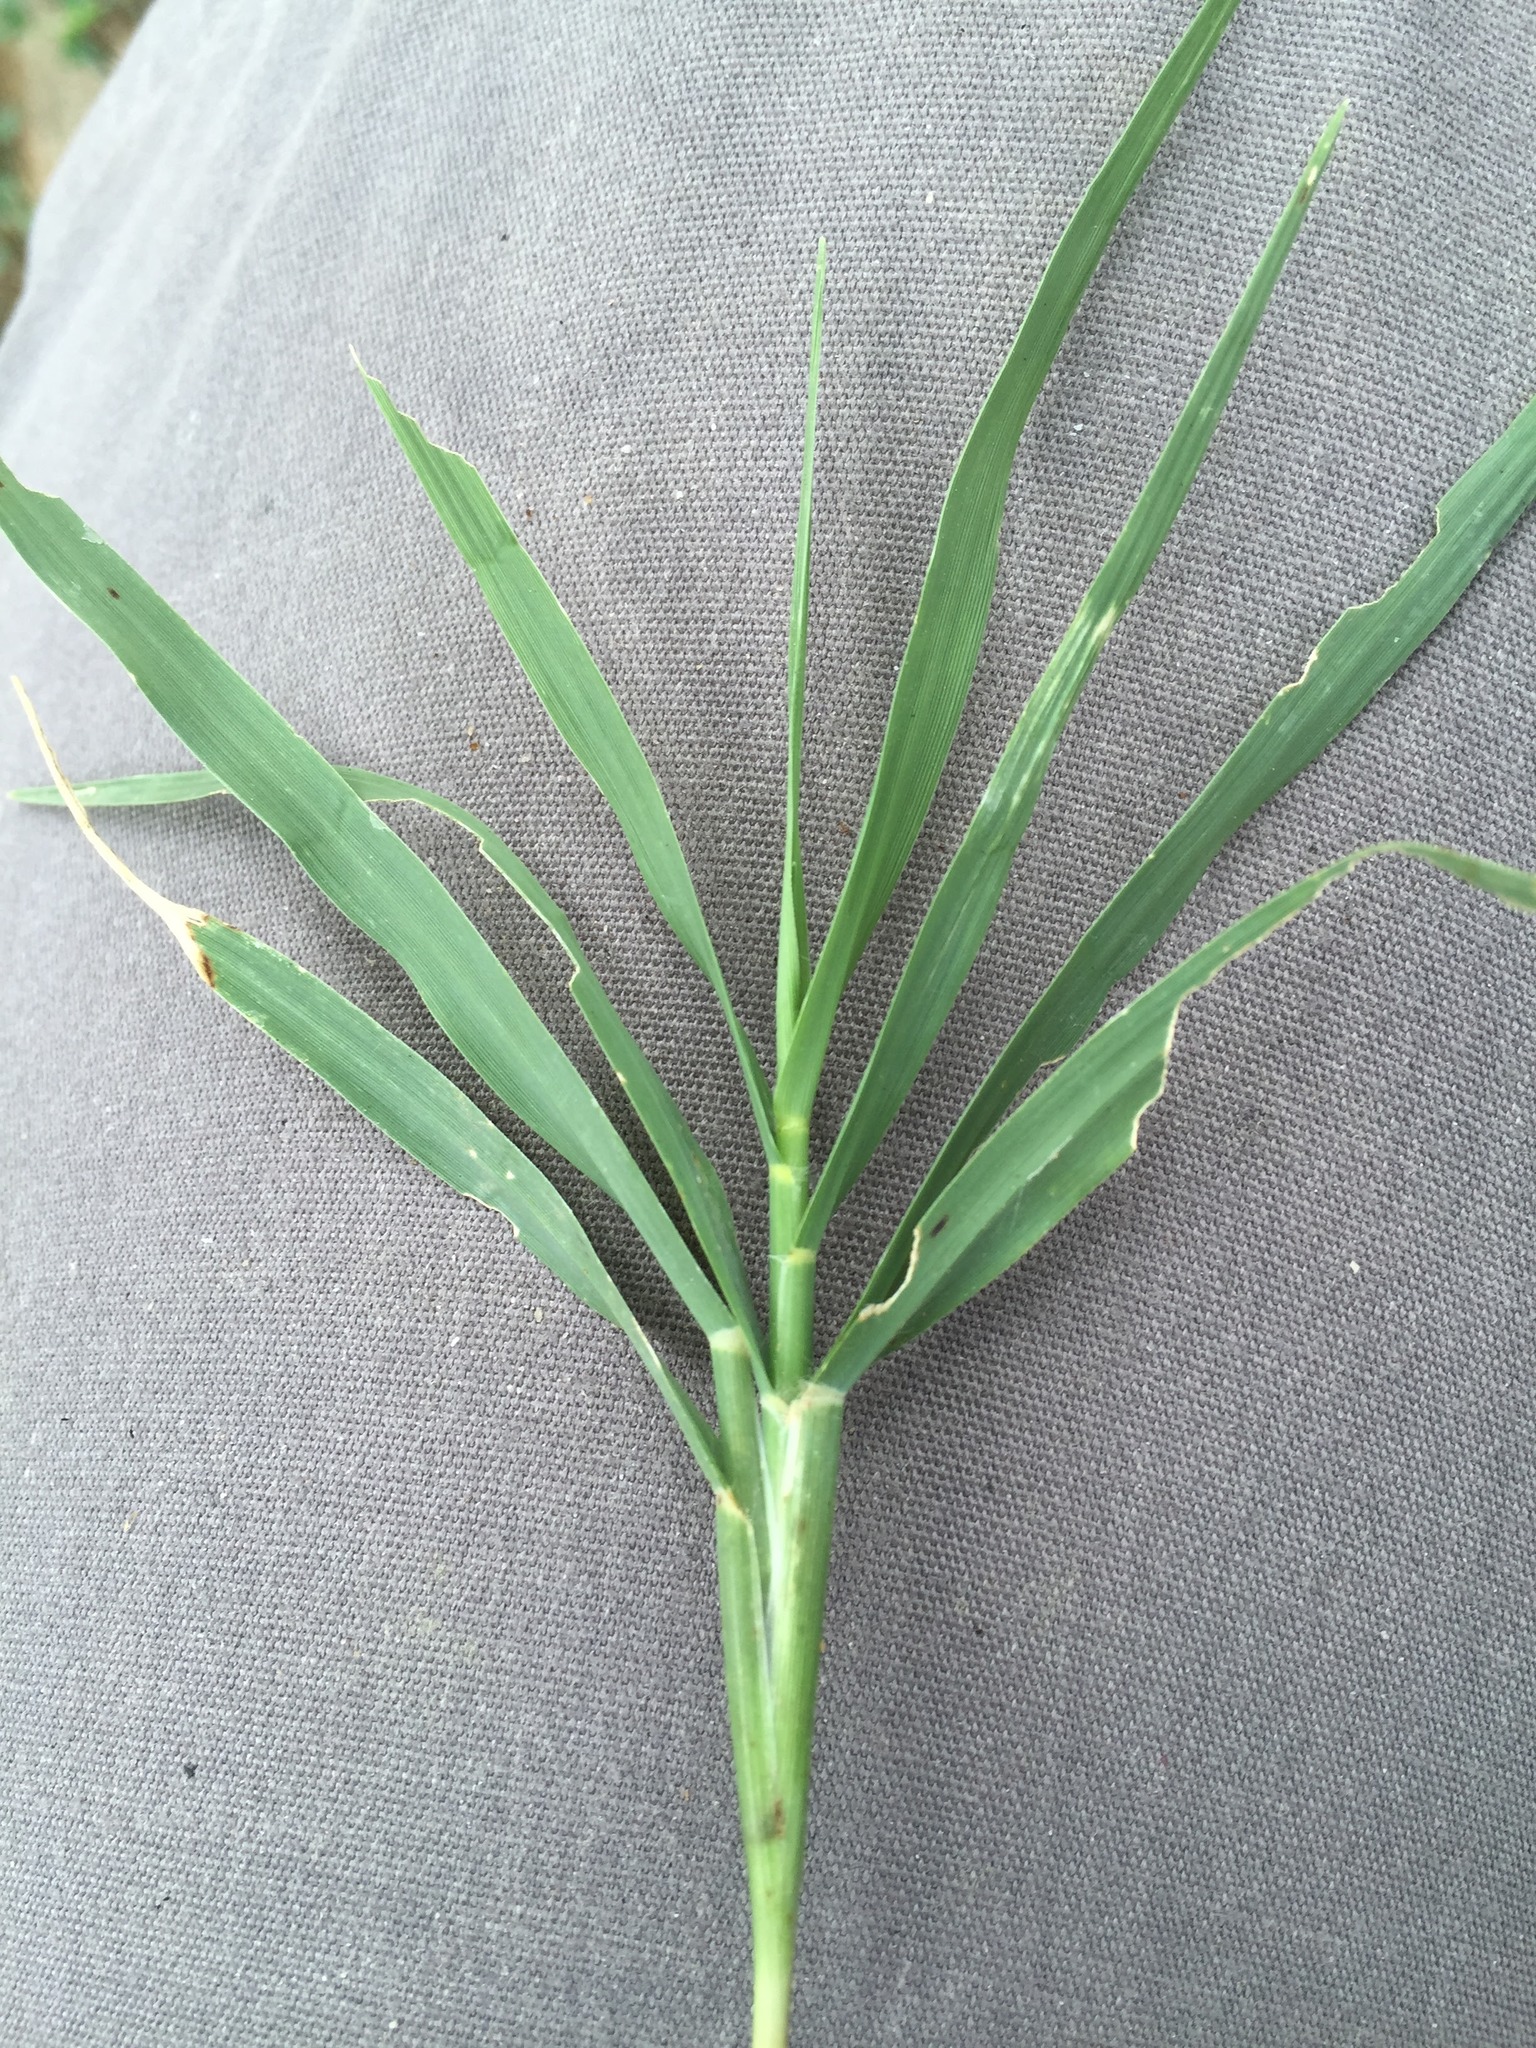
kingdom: Plantae
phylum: Tracheophyta
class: Liliopsida
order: Poales
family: Poaceae
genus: Cynodon
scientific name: Cynodon dactylon
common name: Bermuda grass
